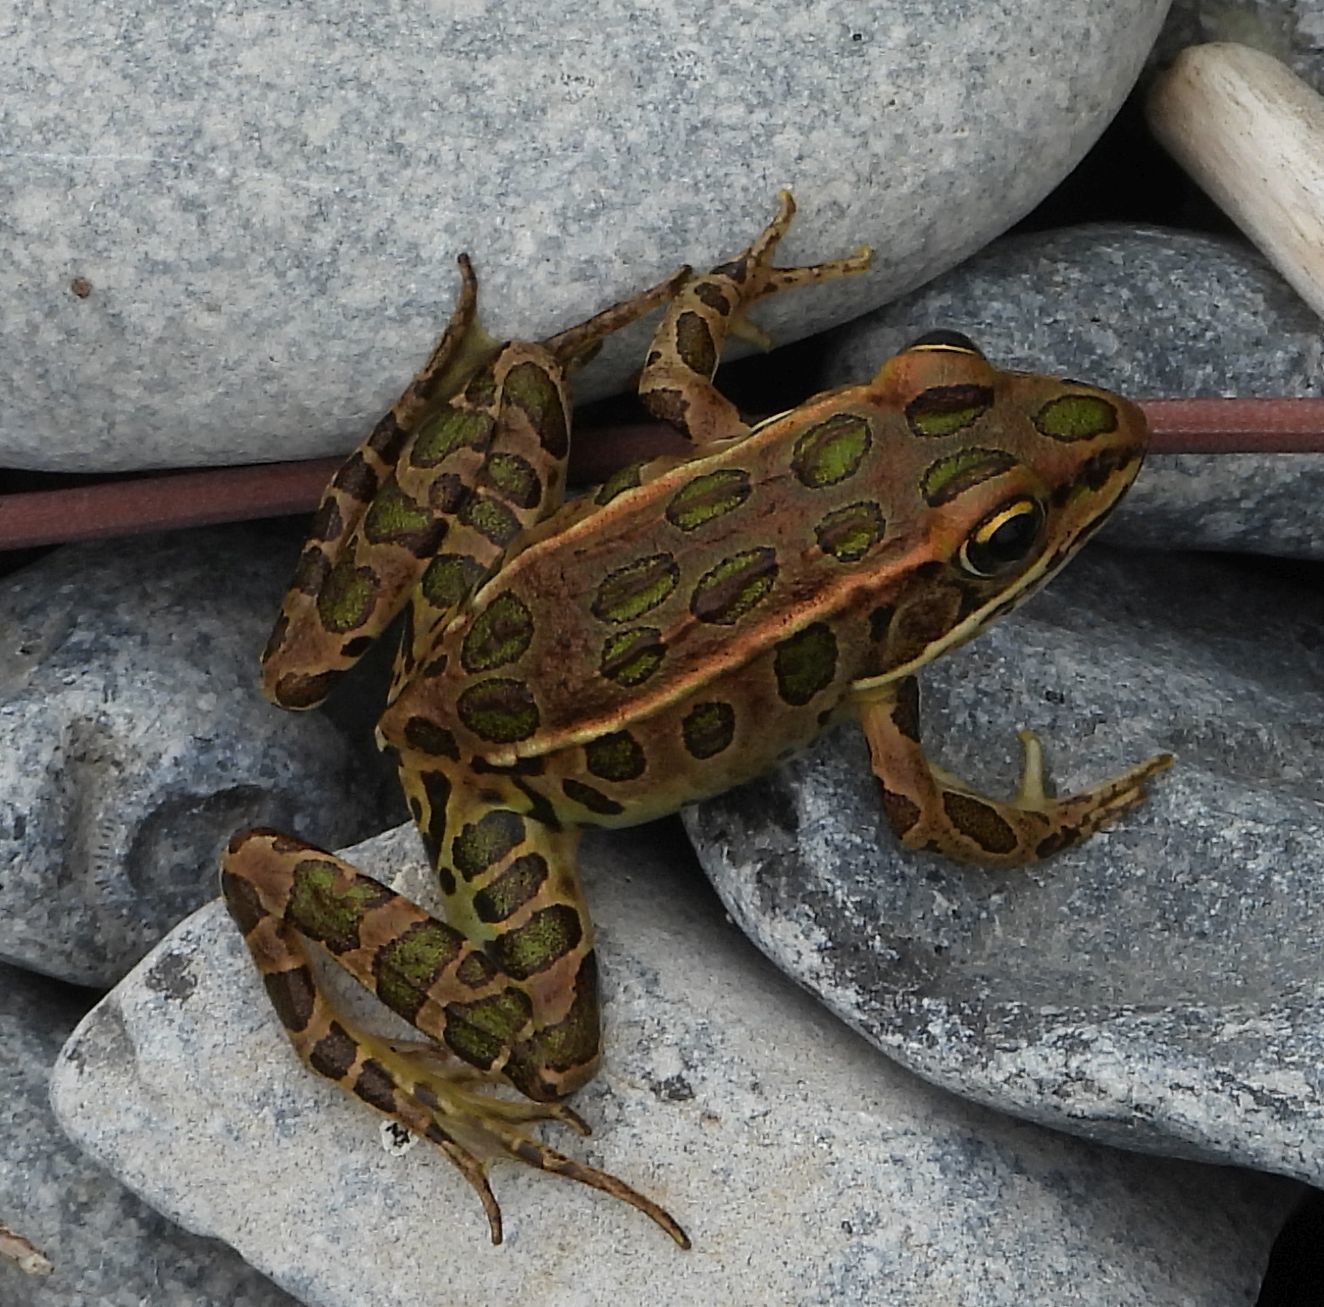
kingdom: Animalia
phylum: Chordata
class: Amphibia
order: Anura
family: Ranidae
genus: Lithobates
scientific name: Lithobates pipiens
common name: Northern leopard frog
